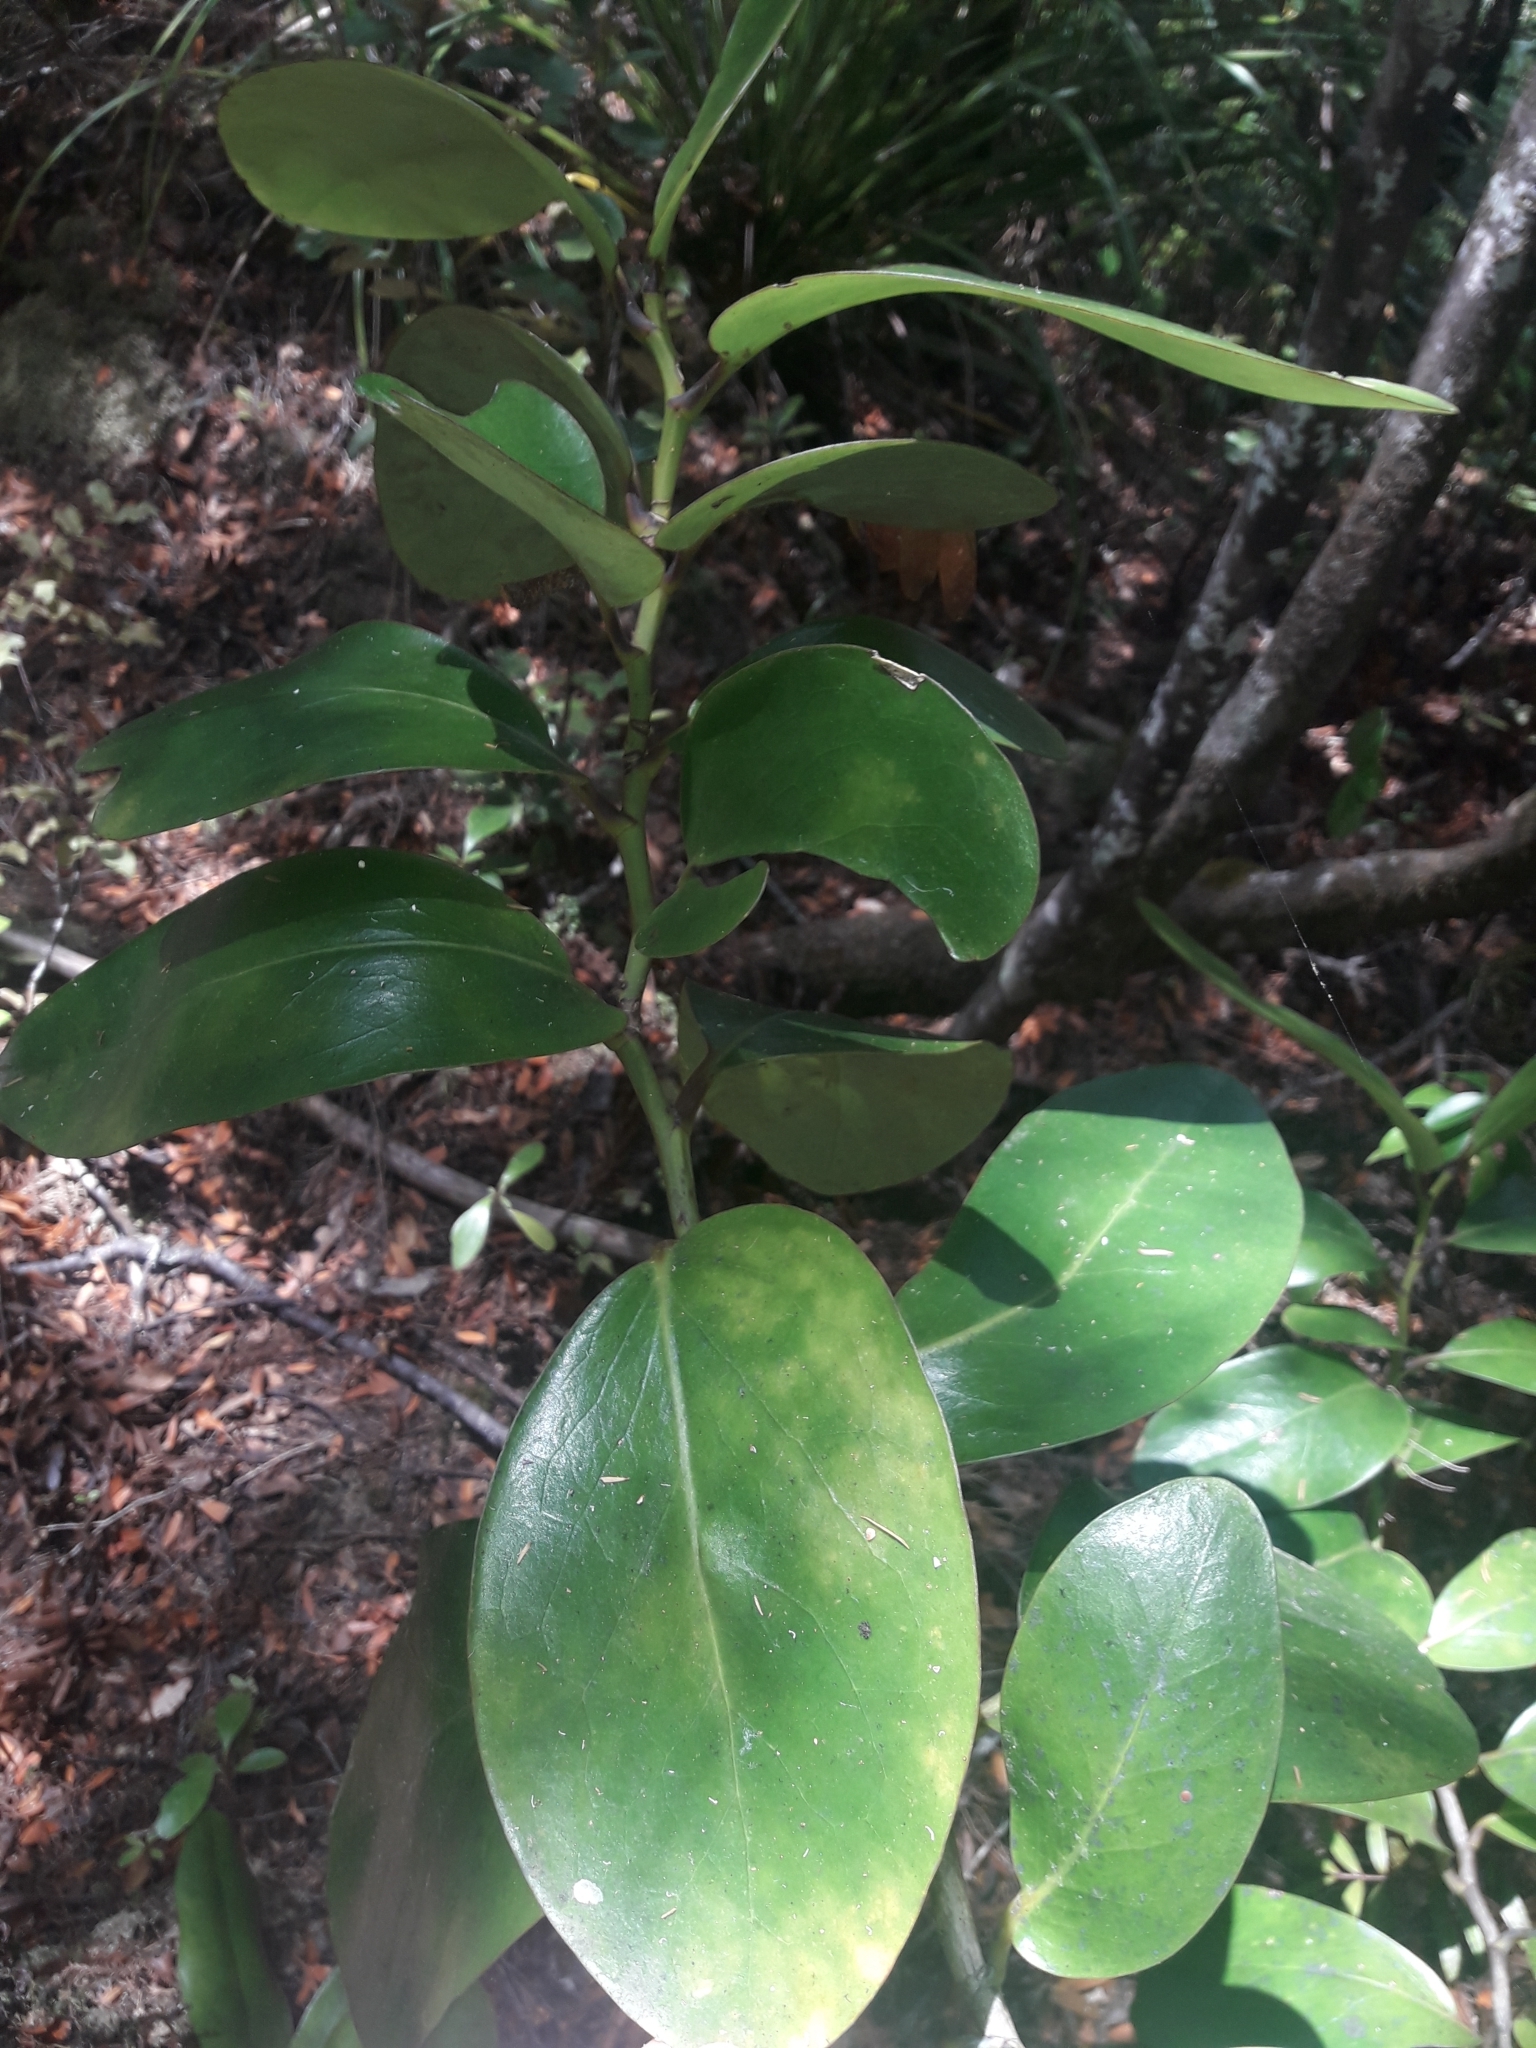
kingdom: Plantae
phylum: Tracheophyta
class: Magnoliopsida
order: Apiales
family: Griseliniaceae
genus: Griselinia
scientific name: Griselinia lucida
